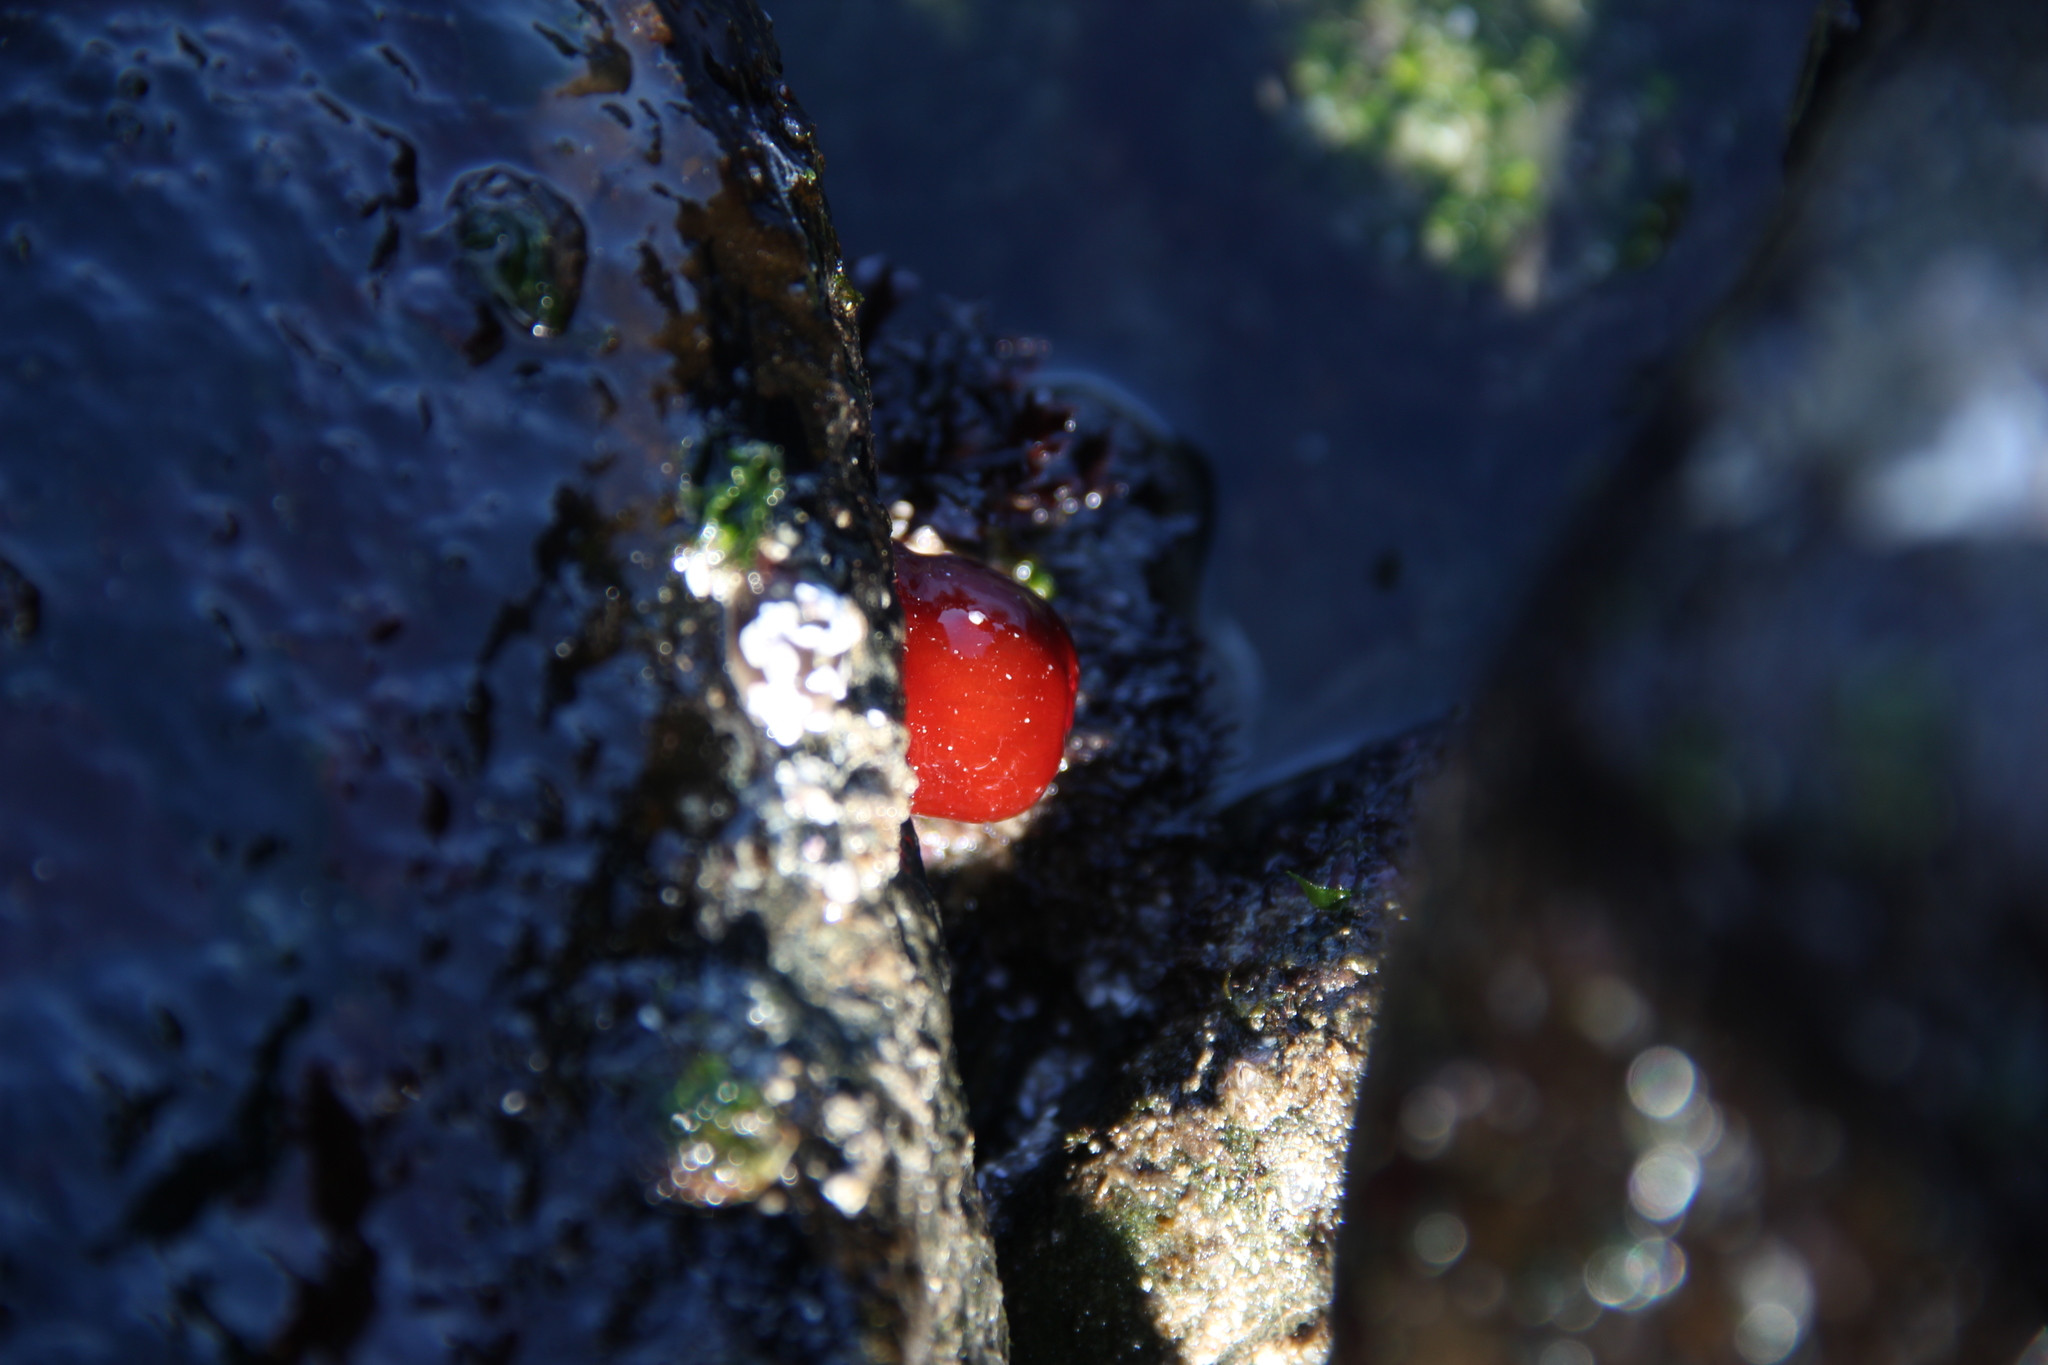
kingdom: Animalia
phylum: Cnidaria
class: Anthozoa
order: Actiniaria
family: Actiniidae
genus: Anemonia
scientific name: Anemonia alicemartinae
